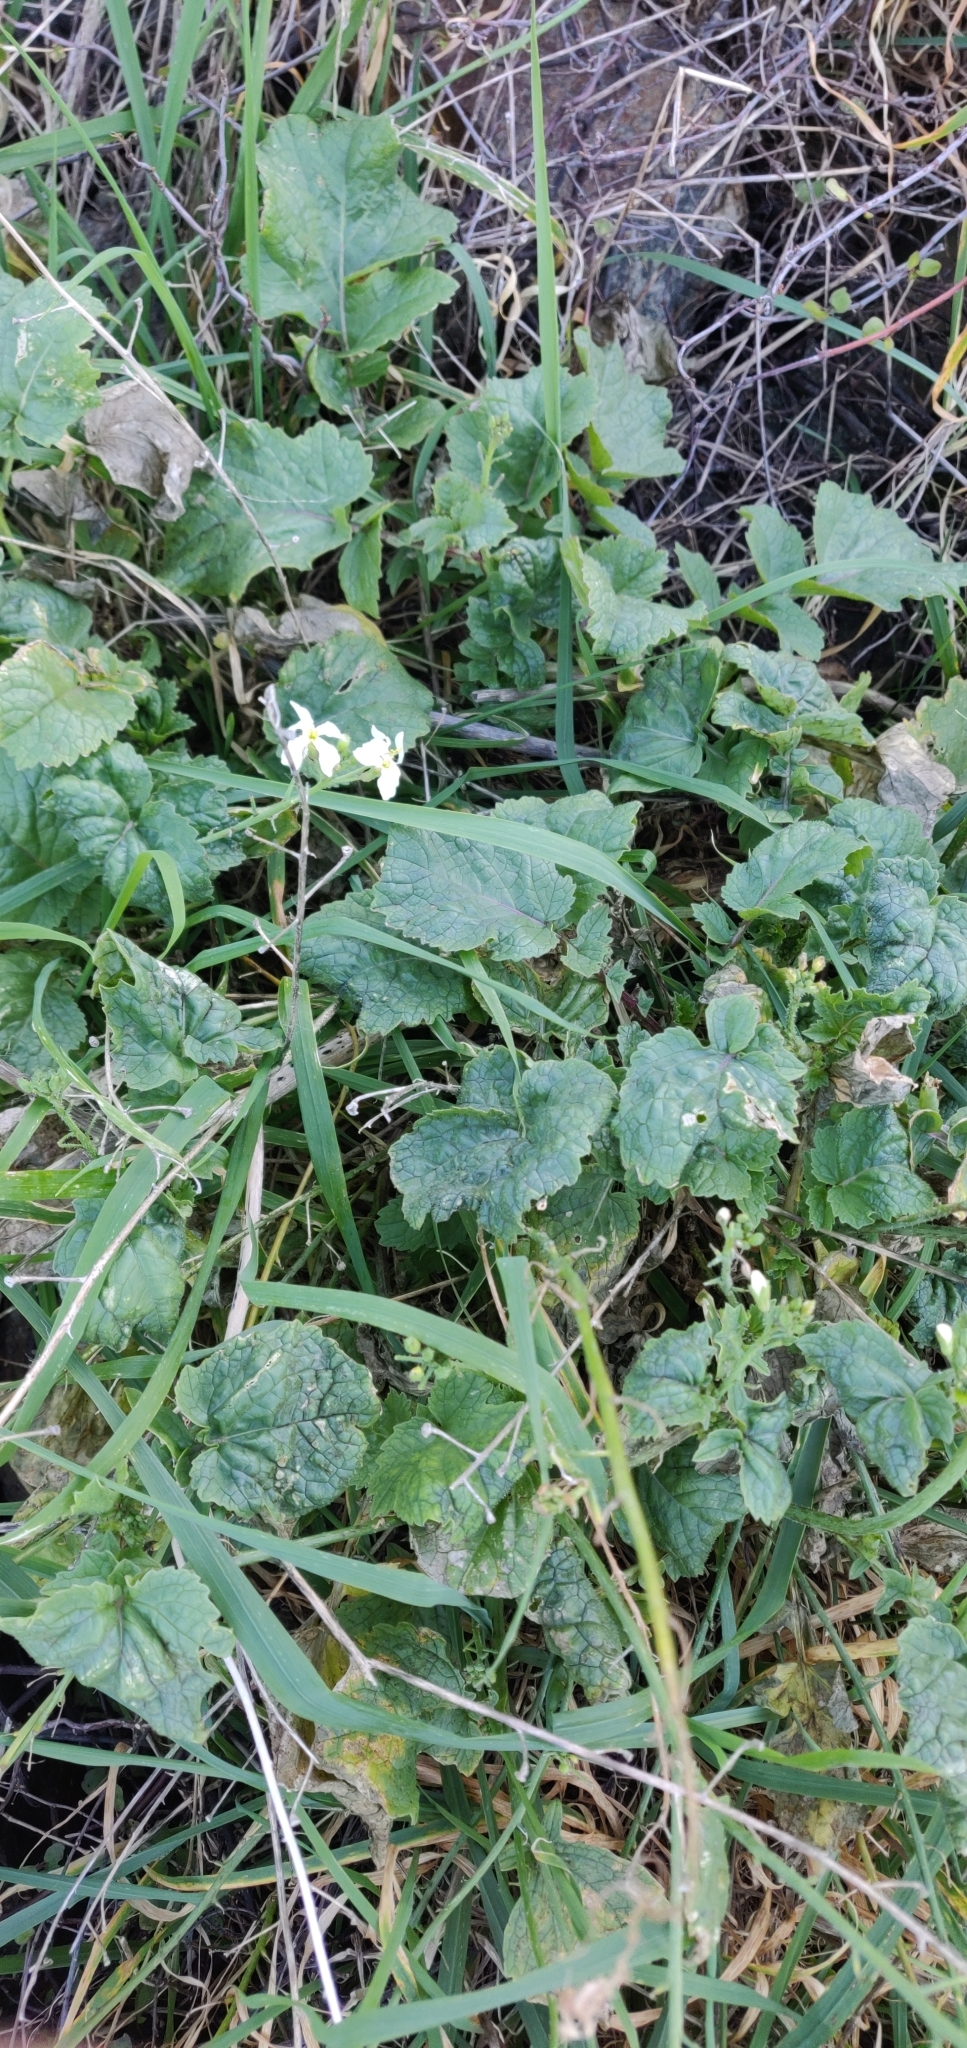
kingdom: Plantae
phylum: Tracheophyta
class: Magnoliopsida
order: Brassicales
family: Brassicaceae
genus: Raphanus
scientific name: Raphanus raphanistrum
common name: Wild radish
